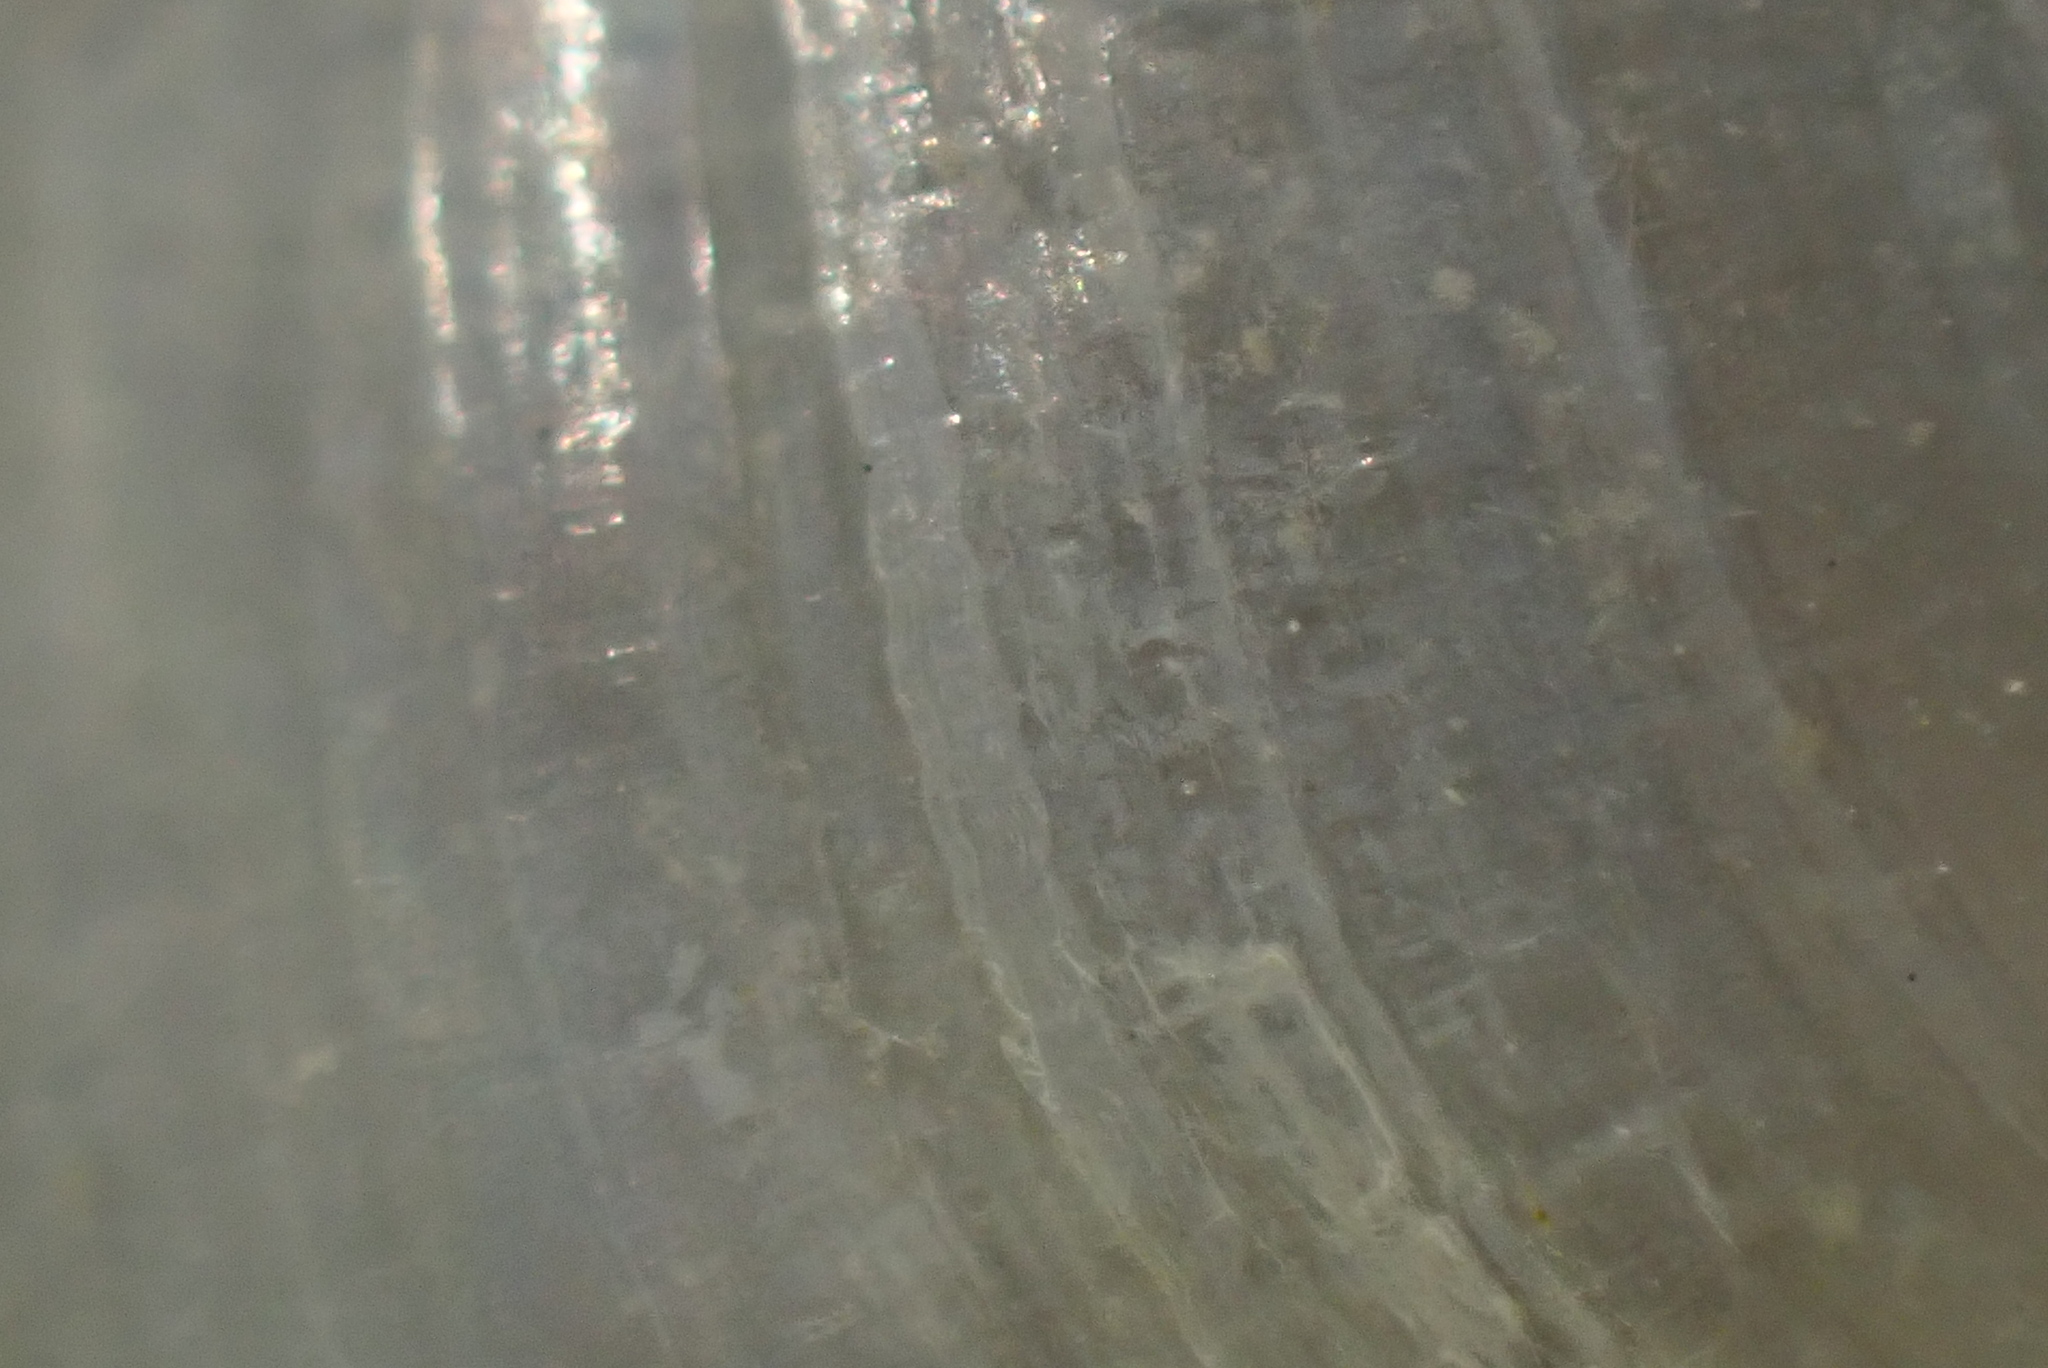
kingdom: Animalia
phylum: Mollusca
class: Gastropoda
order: Cephalaspidea
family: Philinidae
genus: Philine
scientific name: Philine
